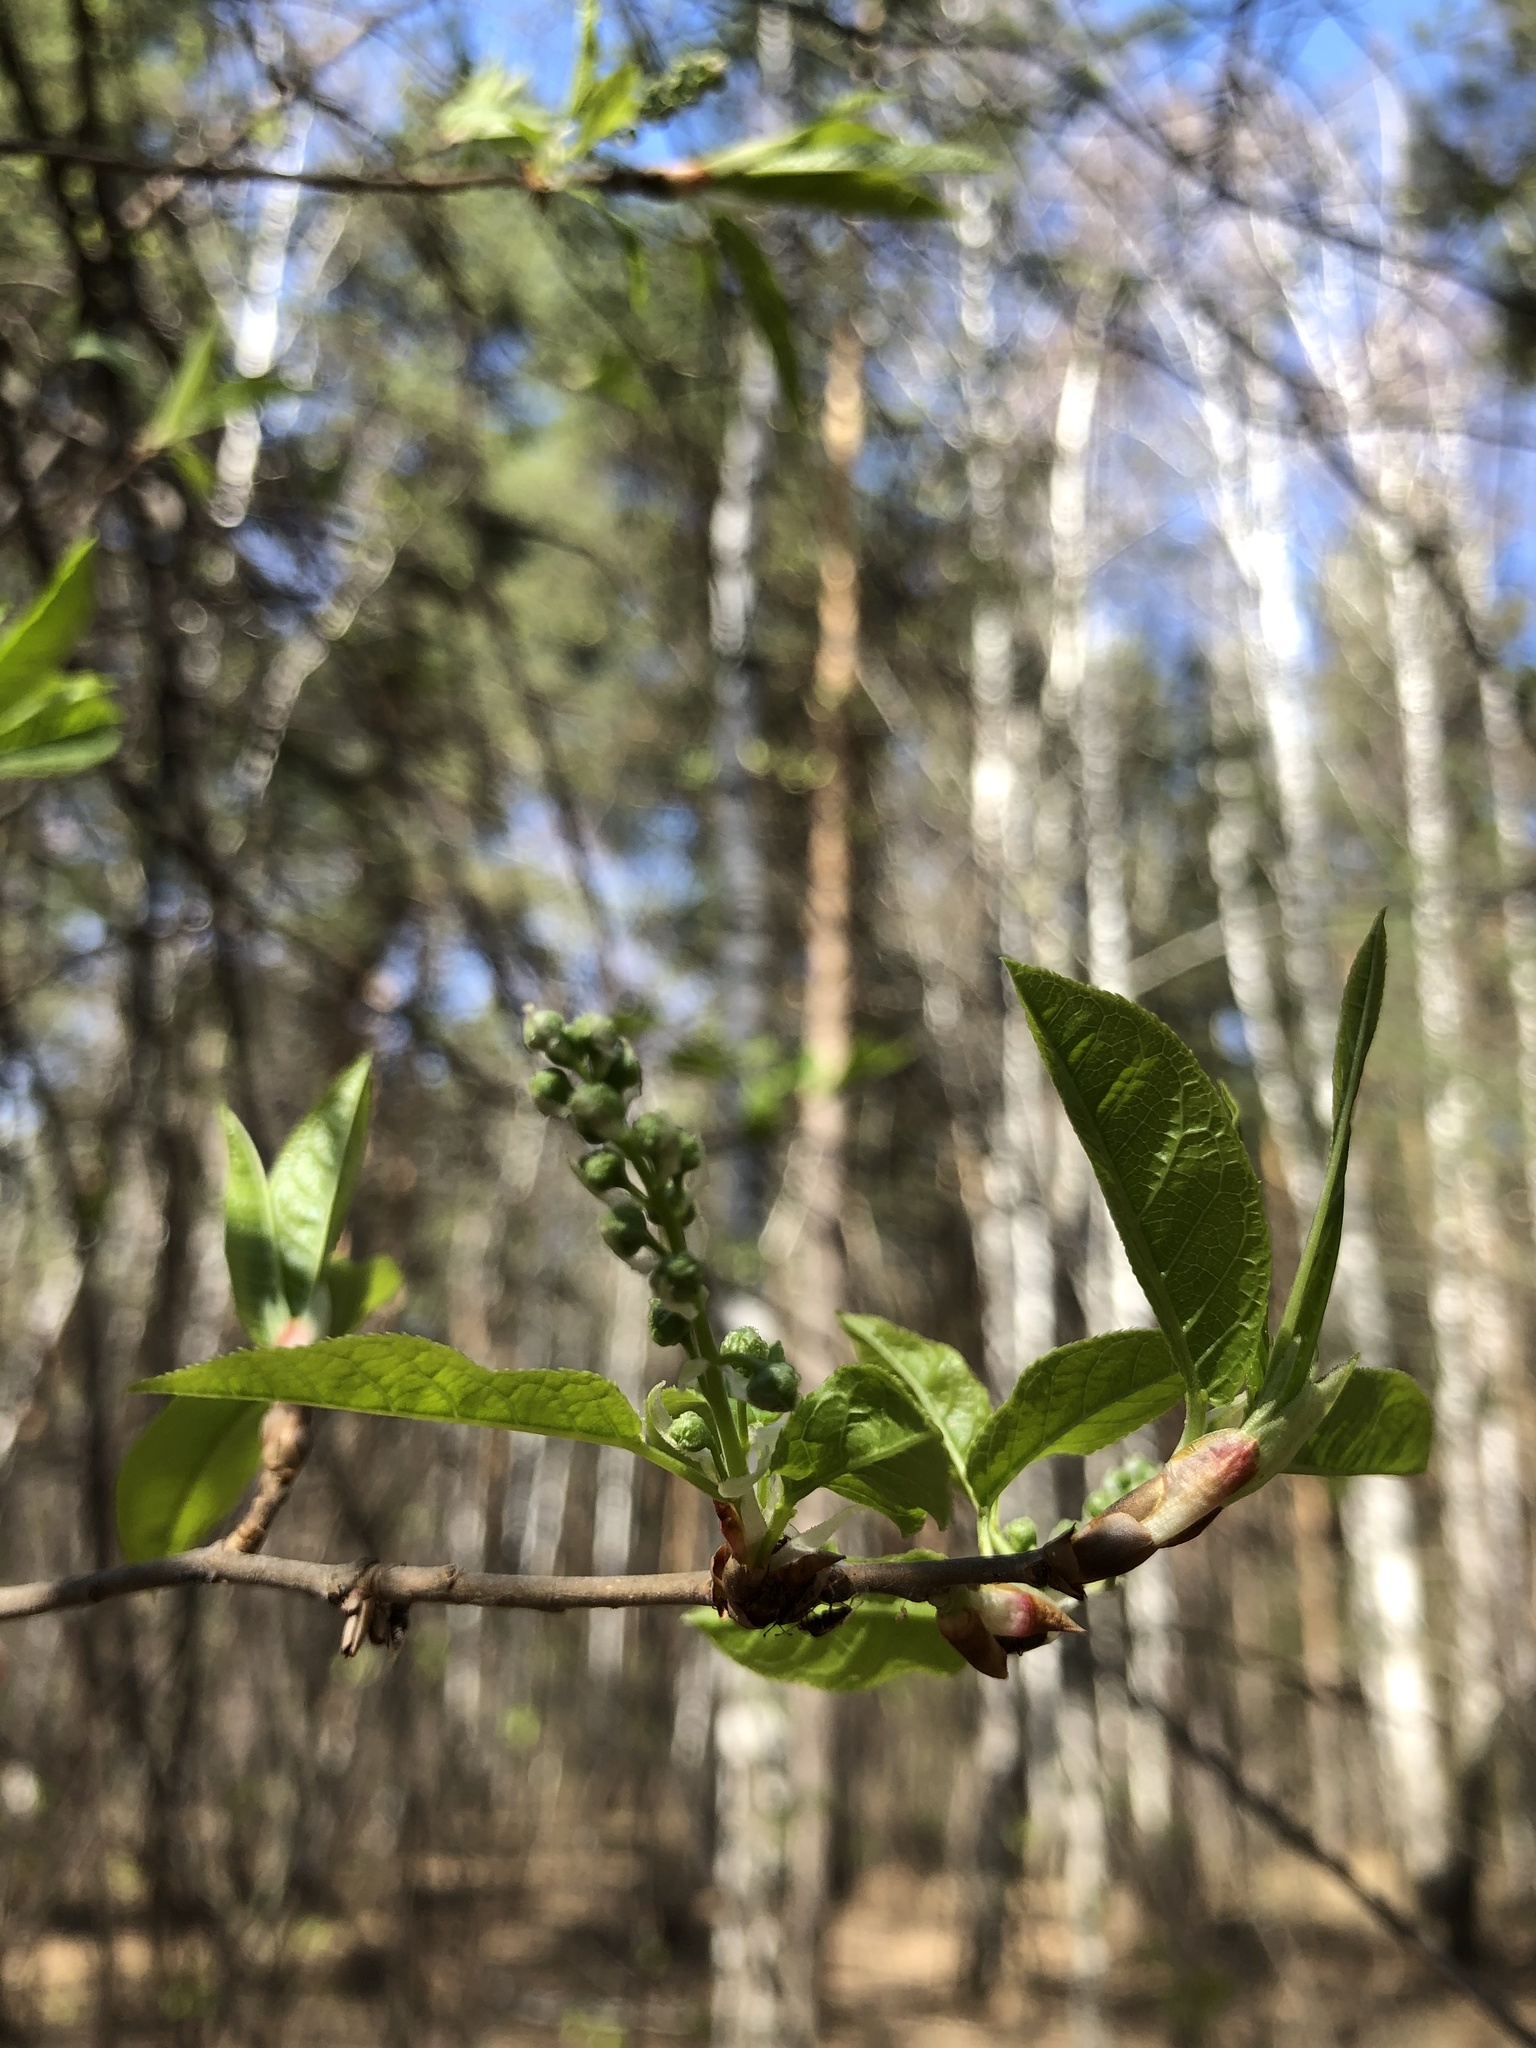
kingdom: Plantae
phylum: Tracheophyta
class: Magnoliopsida
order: Rosales
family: Rosaceae
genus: Prunus
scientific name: Prunus padus
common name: Bird cherry
